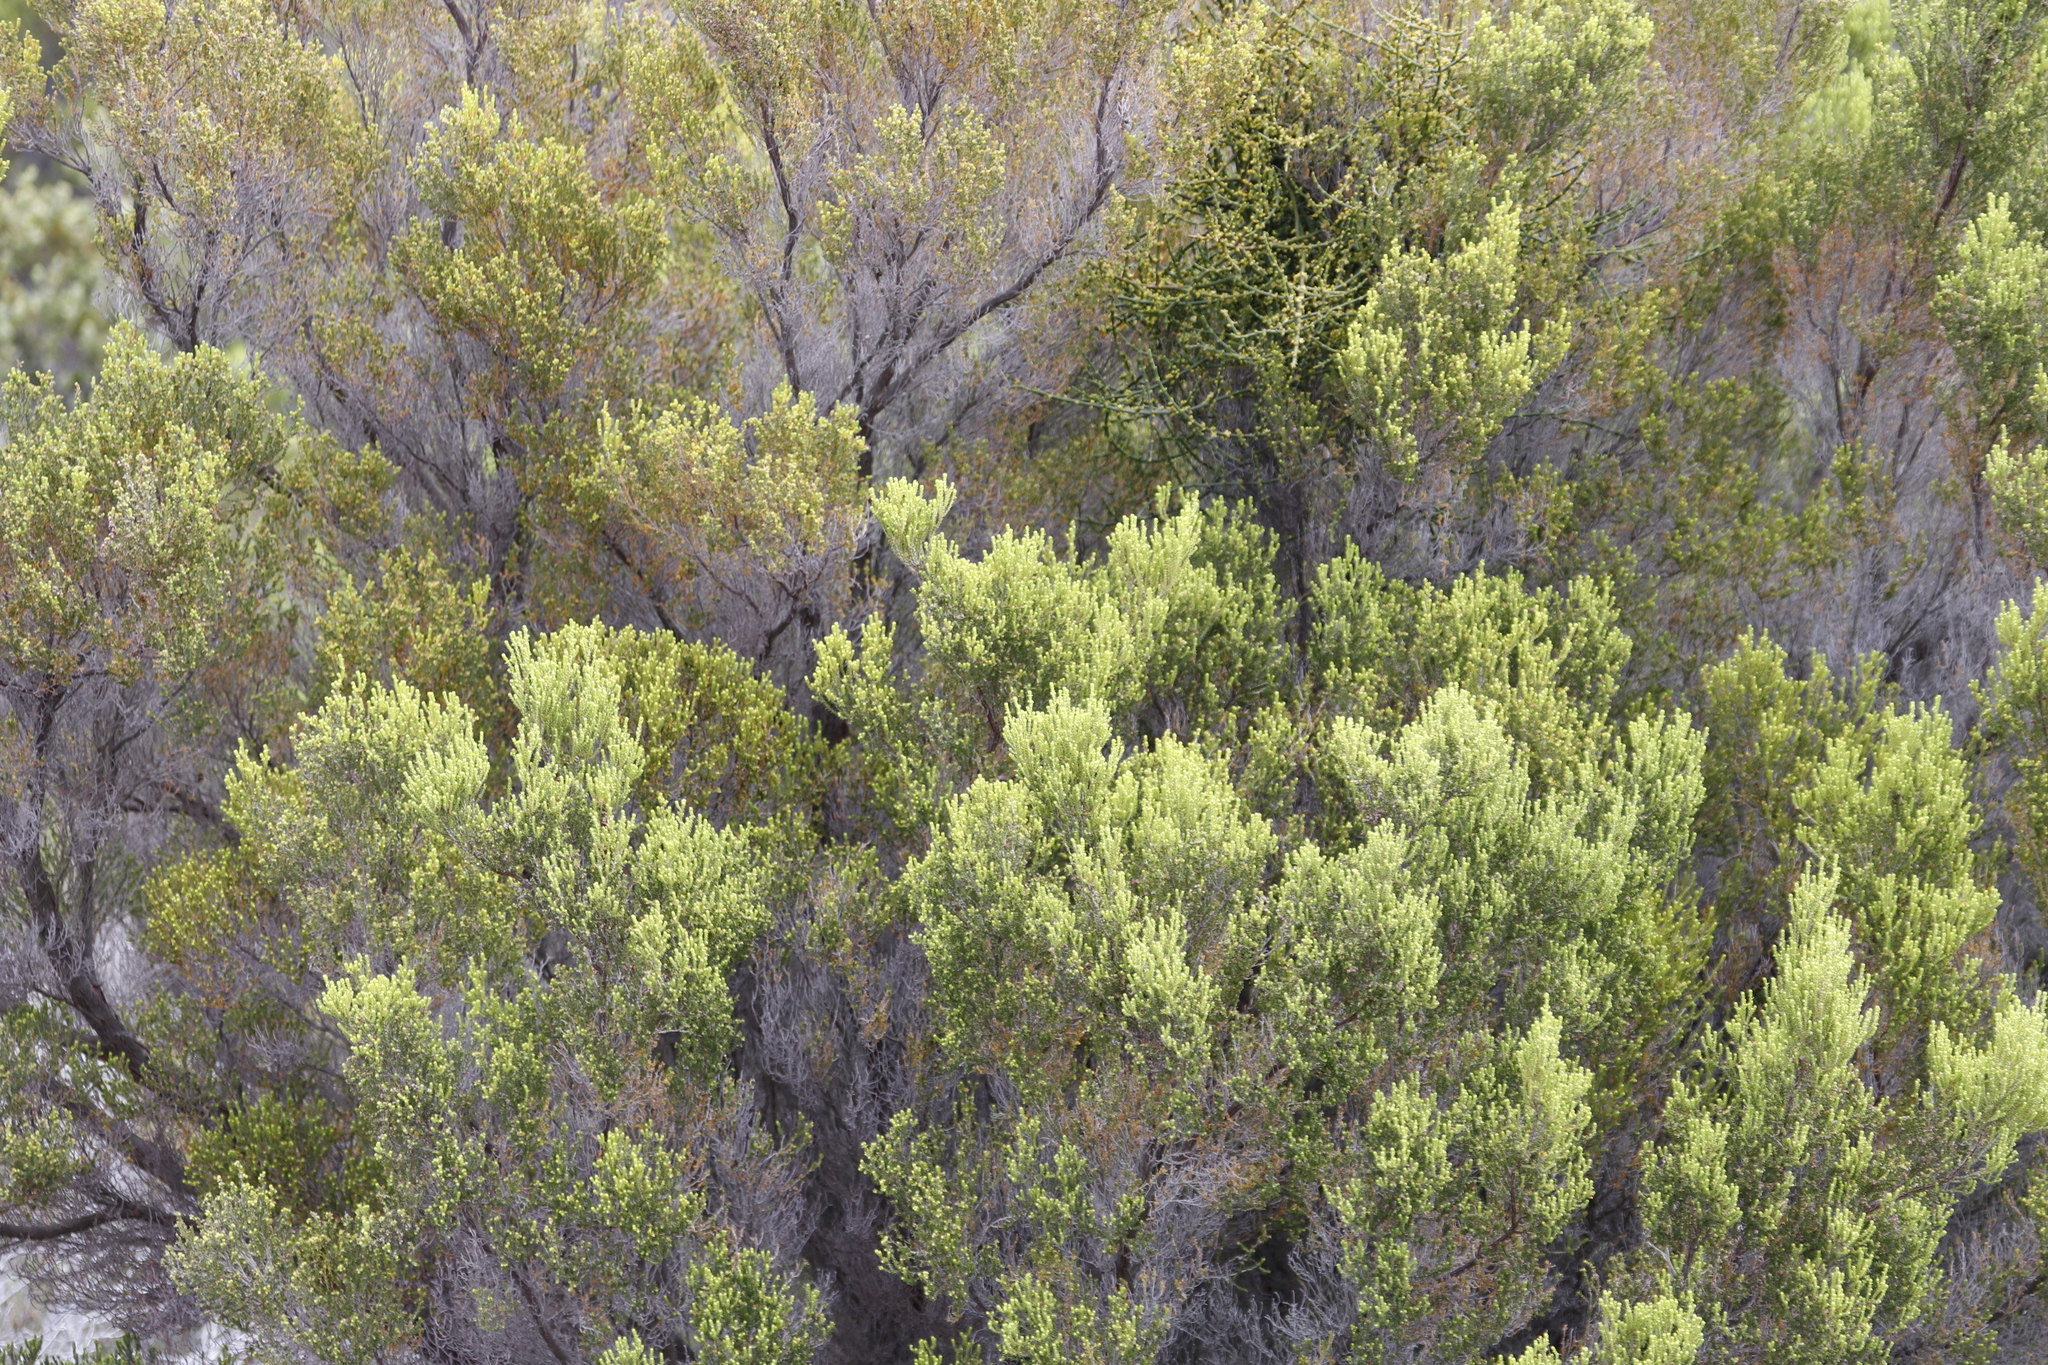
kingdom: Plantae
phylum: Tracheophyta
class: Magnoliopsida
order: Ericales
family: Ericaceae
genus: Erica
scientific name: Erica tristis
